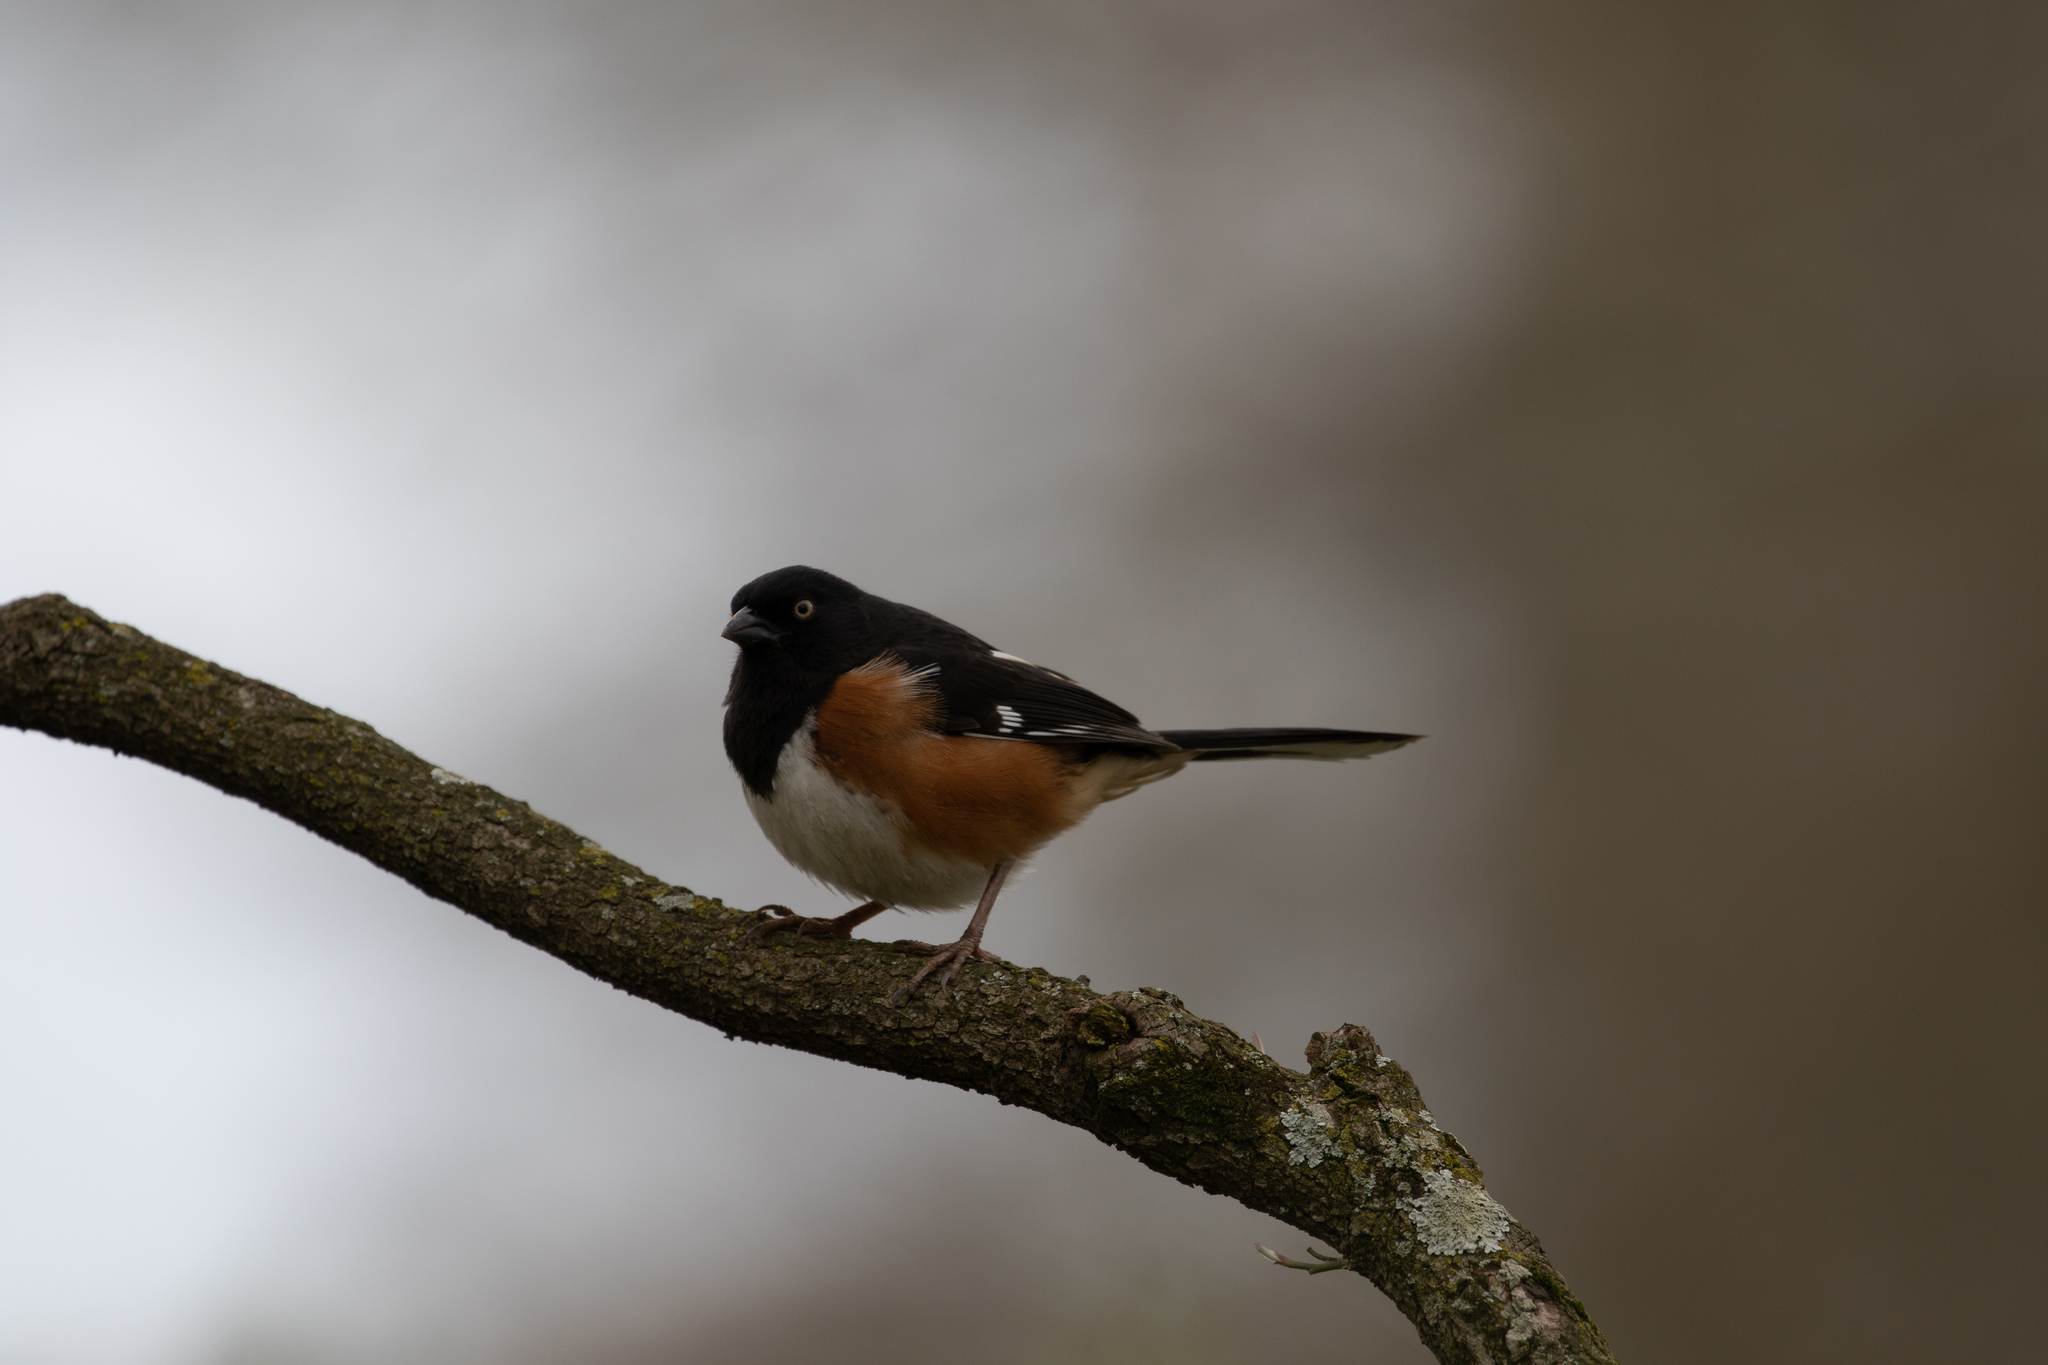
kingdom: Animalia
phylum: Chordata
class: Aves
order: Passeriformes
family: Passerellidae
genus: Pipilo
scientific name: Pipilo erythrophthalmus
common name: Eastern towhee
